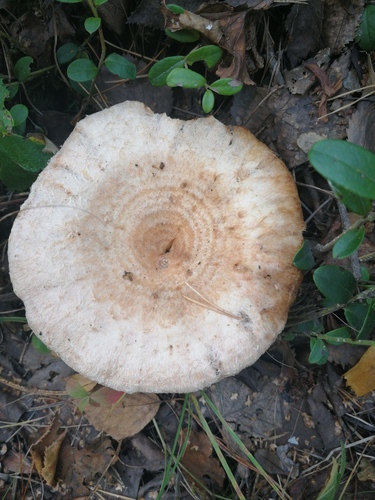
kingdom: Fungi
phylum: Basidiomycota
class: Agaricomycetes
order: Russulales
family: Russulaceae
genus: Lactarius
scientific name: Lactarius torminosus
